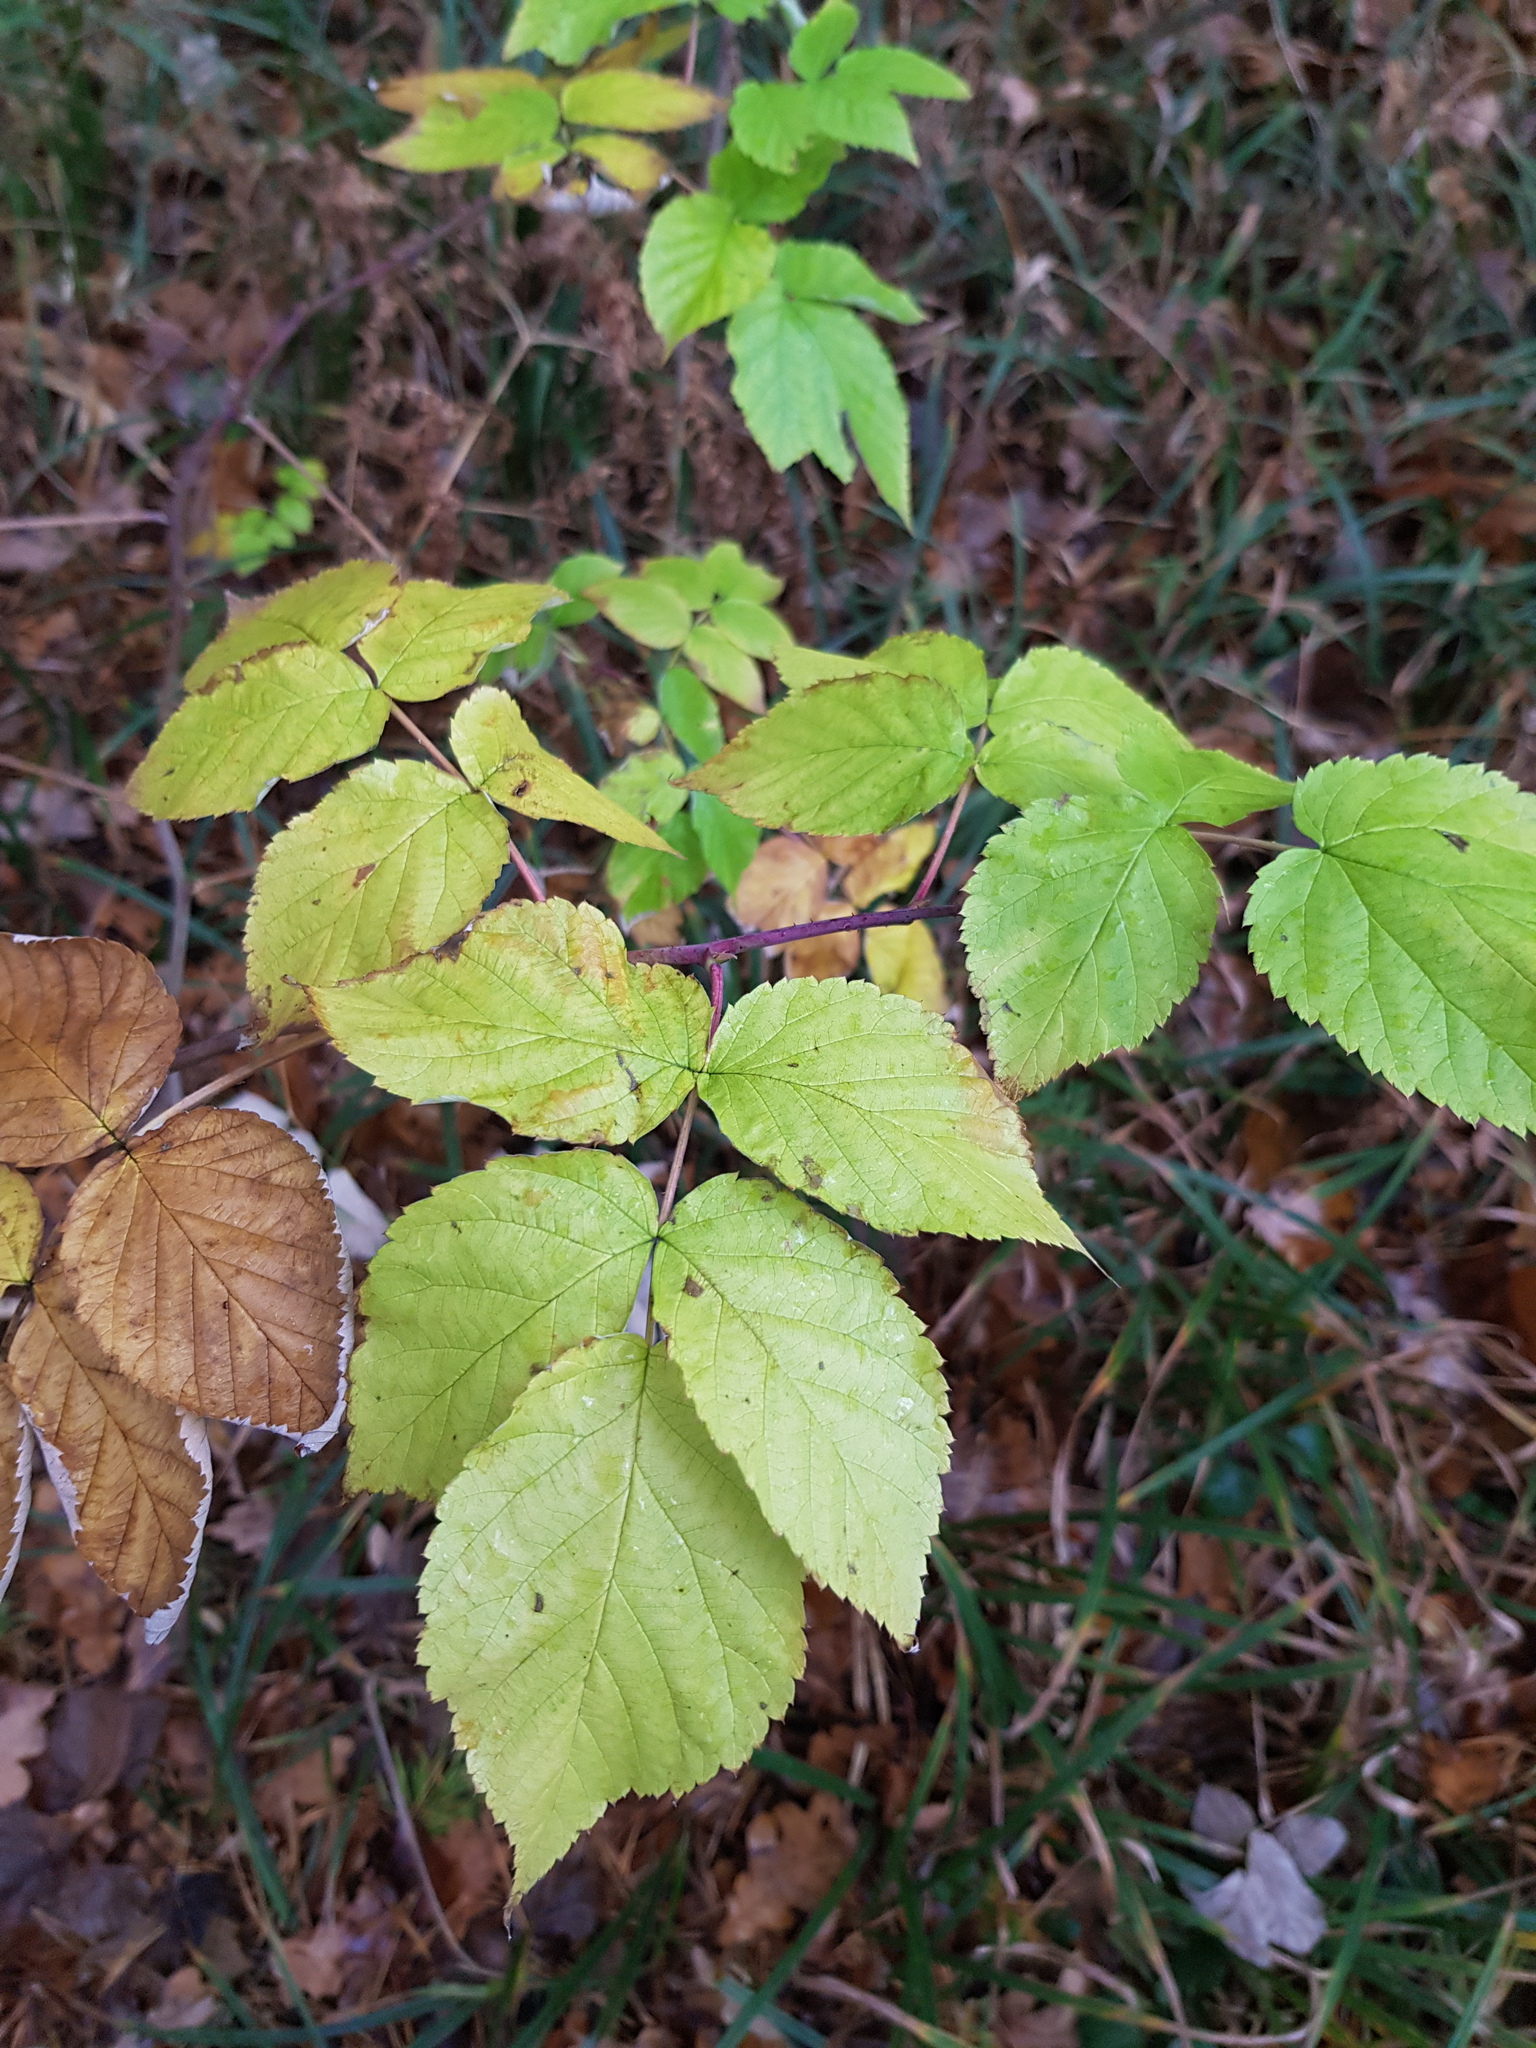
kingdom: Plantae
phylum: Tracheophyta
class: Magnoliopsida
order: Rosales
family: Rosaceae
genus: Rubus
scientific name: Rubus idaeus
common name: Raspberry
